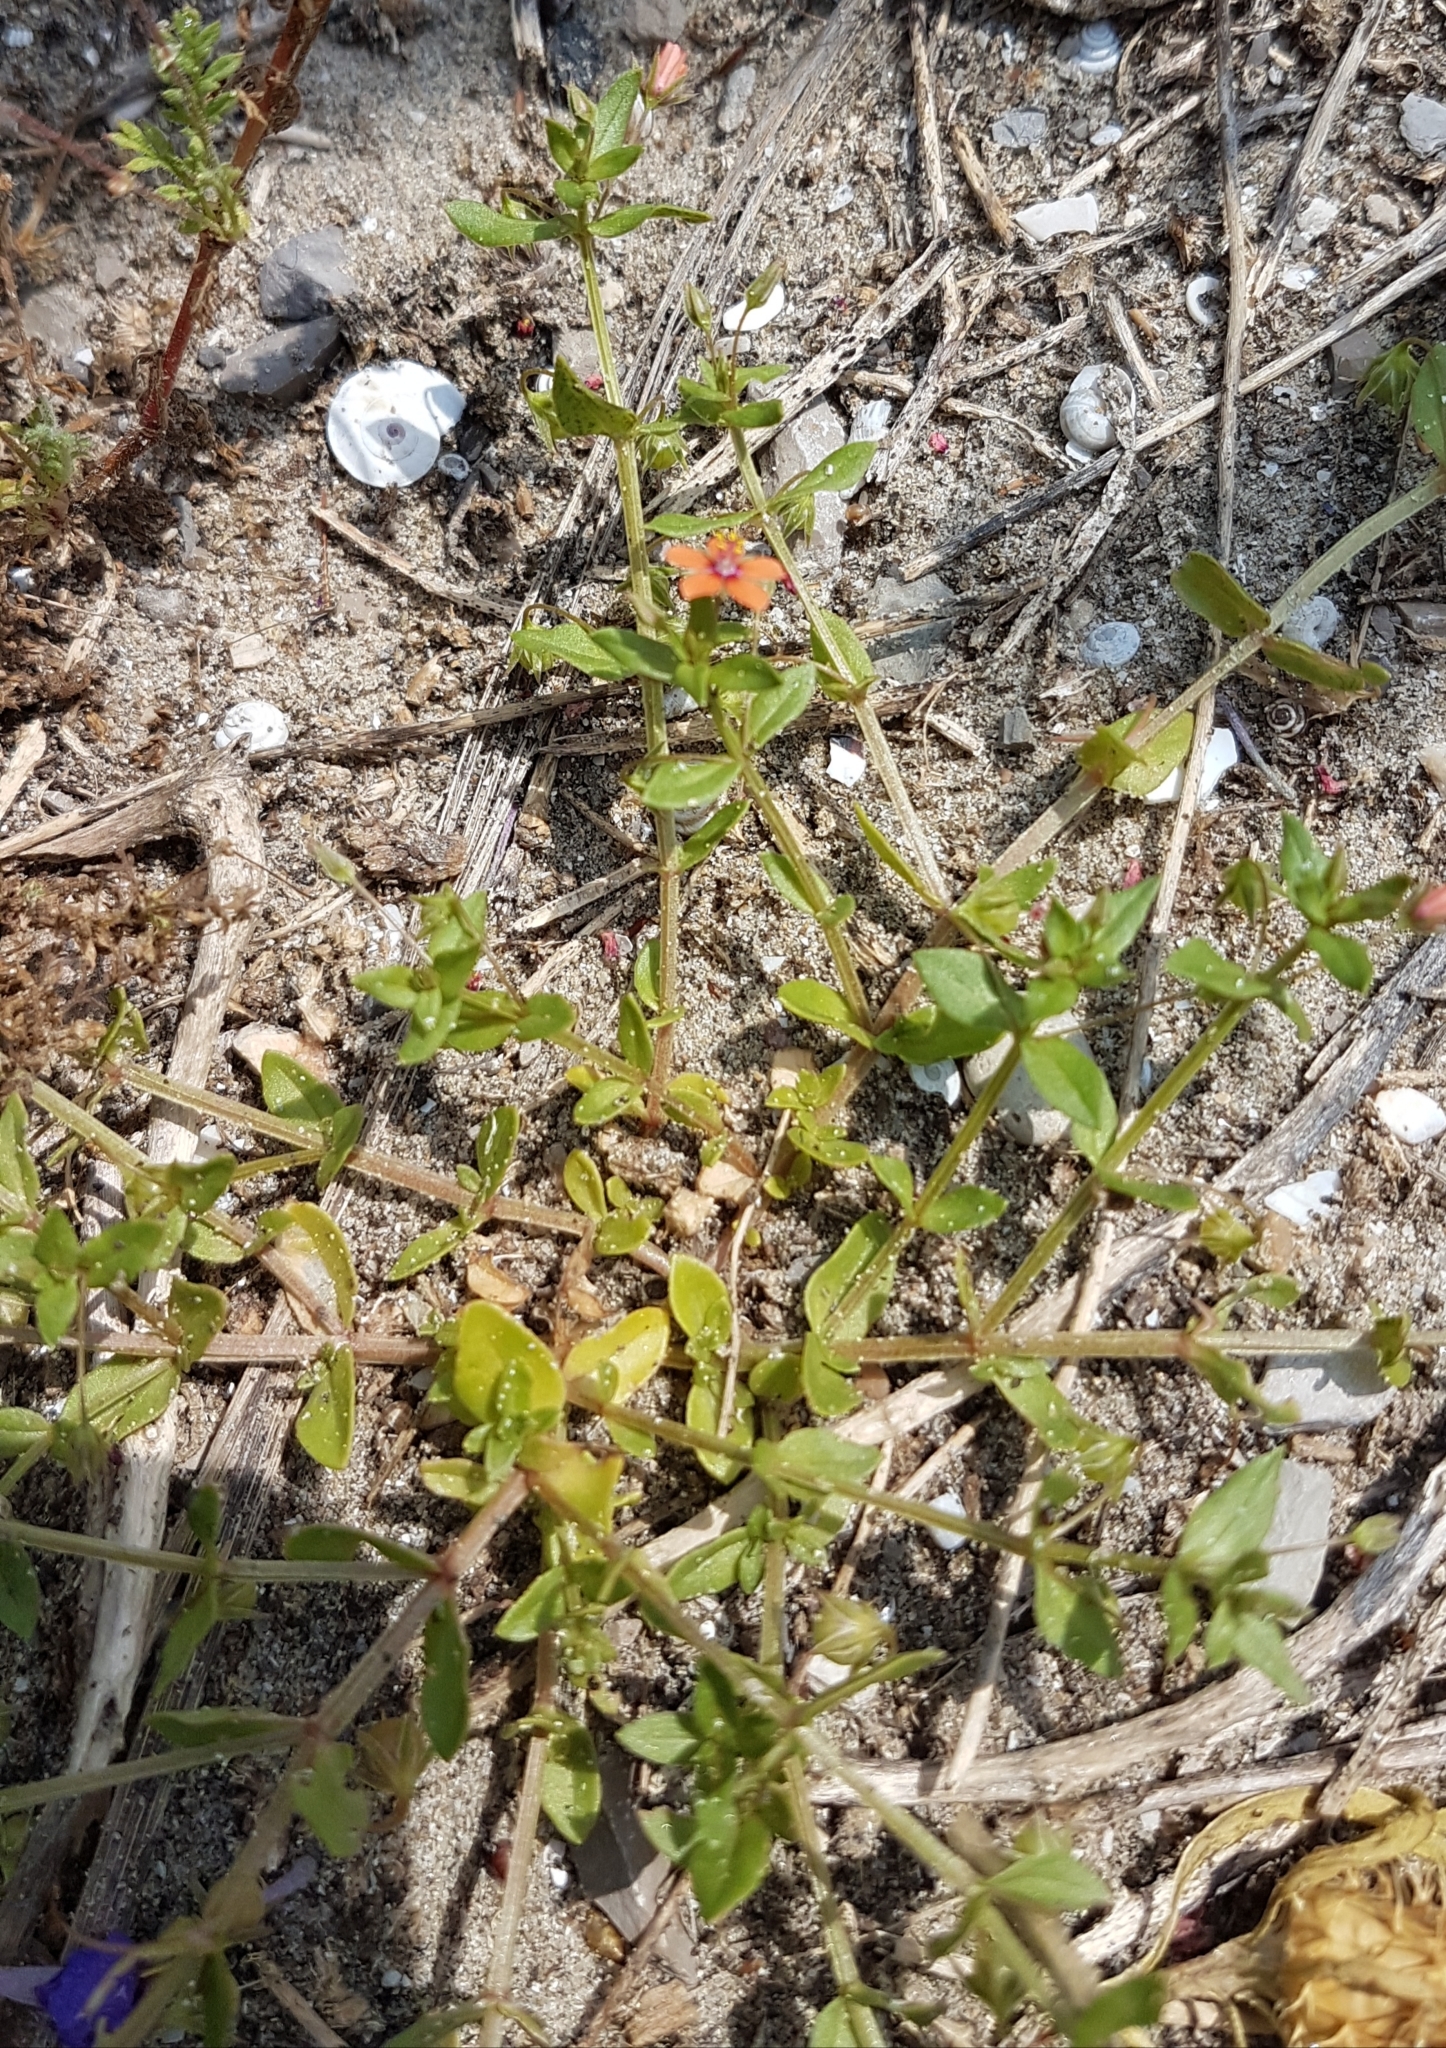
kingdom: Plantae
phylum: Tracheophyta
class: Magnoliopsida
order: Ericales
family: Primulaceae
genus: Lysimachia
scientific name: Lysimachia arvensis
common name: Scarlet pimpernel
